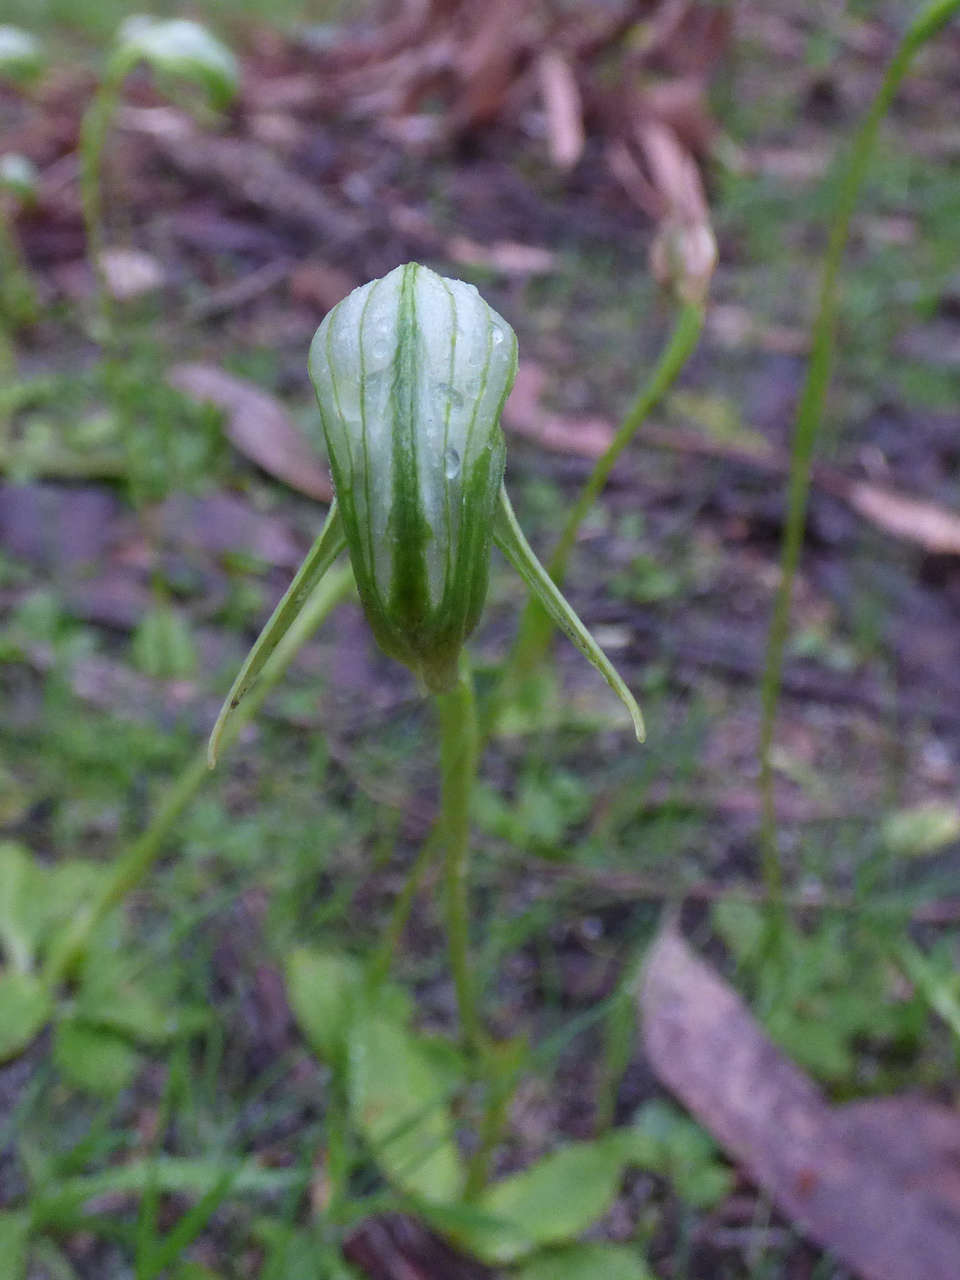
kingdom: Plantae
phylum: Tracheophyta
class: Liliopsida
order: Asparagales
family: Orchidaceae
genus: Pterostylis
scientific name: Pterostylis nutans
